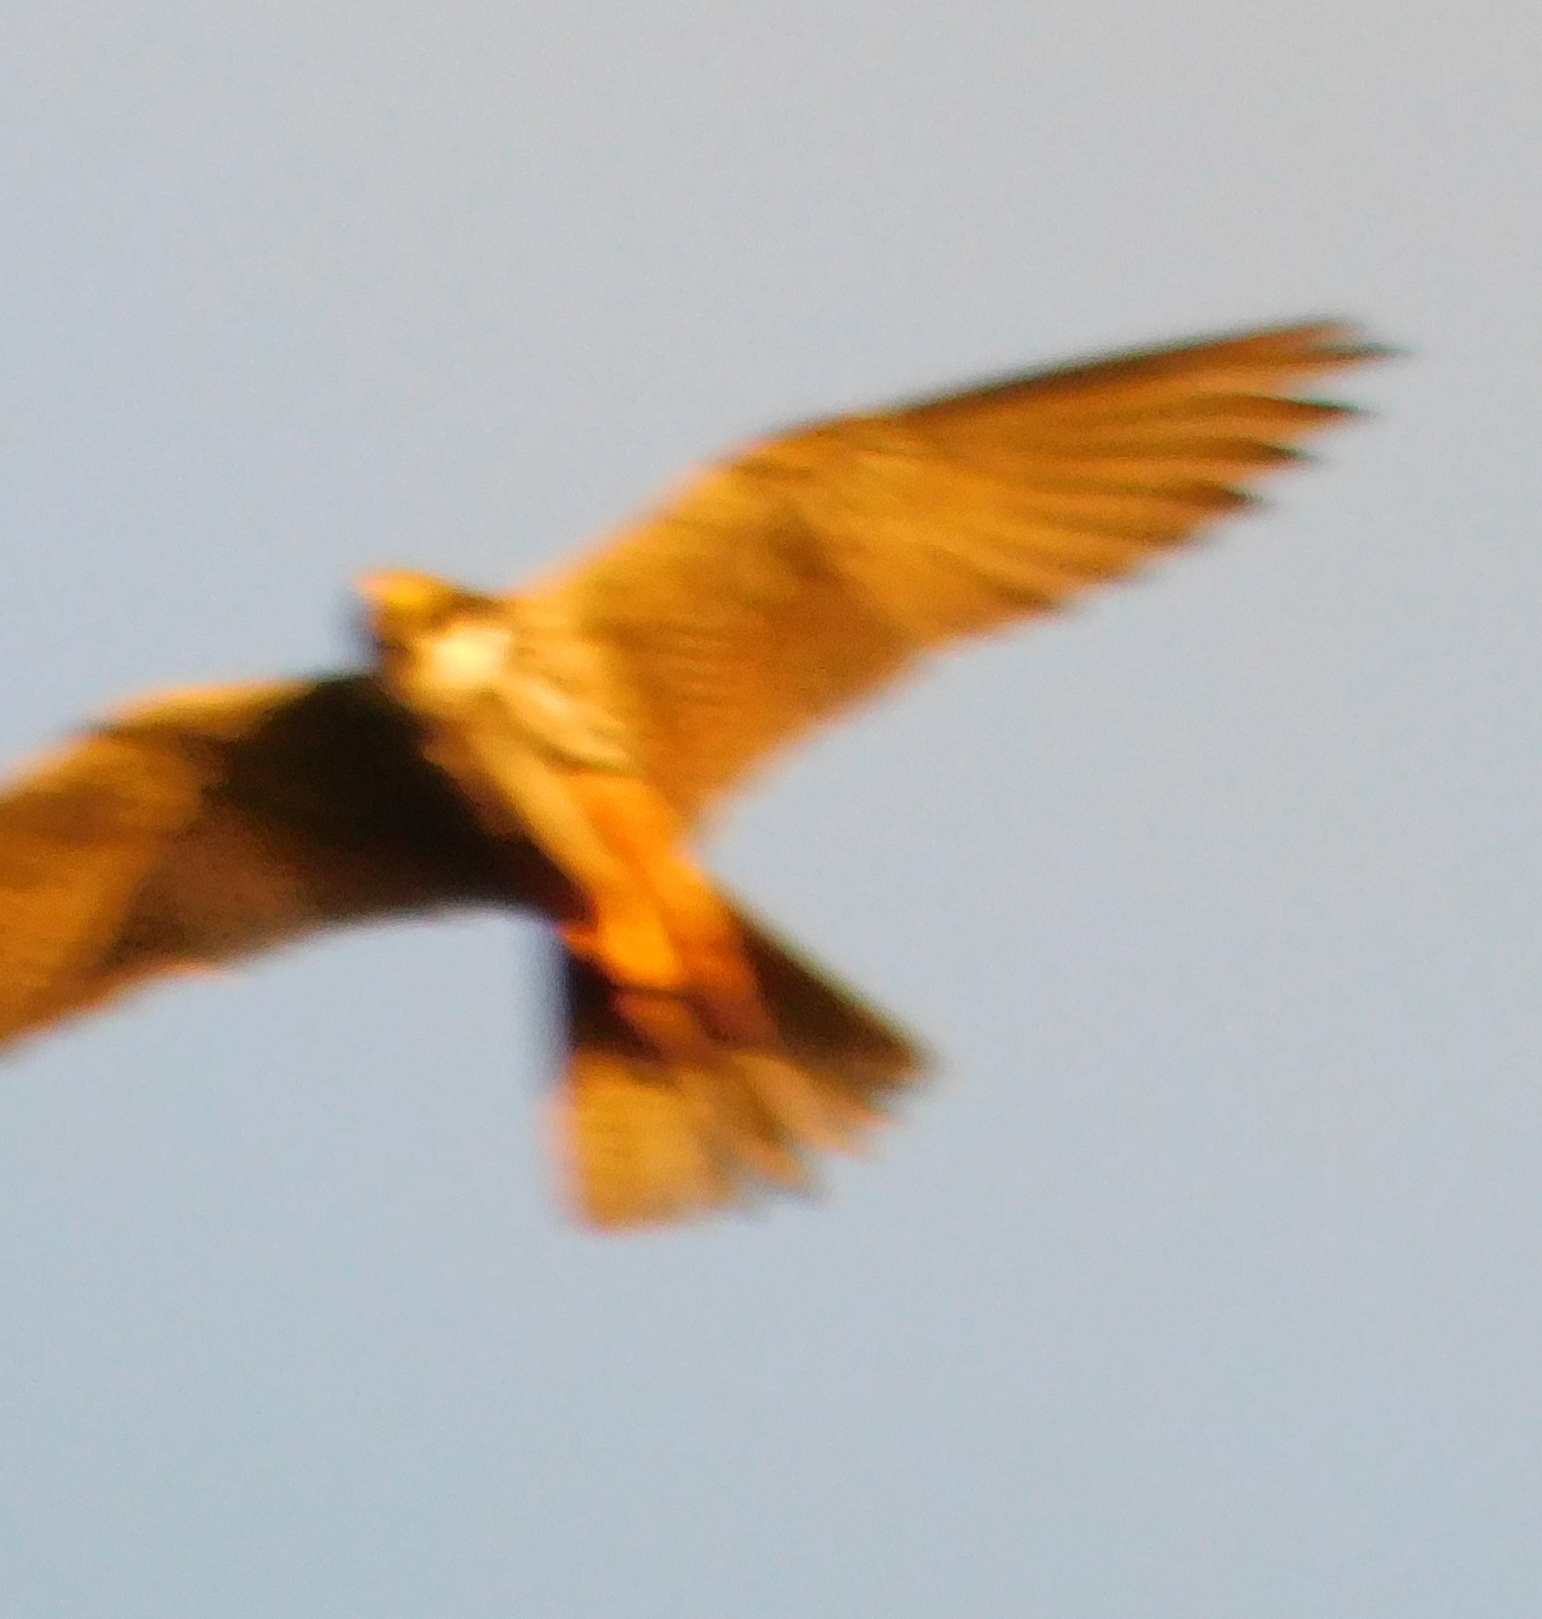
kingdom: Animalia
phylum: Chordata
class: Aves
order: Falconiformes
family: Falconidae
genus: Falco
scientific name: Falco subbuteo
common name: Eurasian hobby
